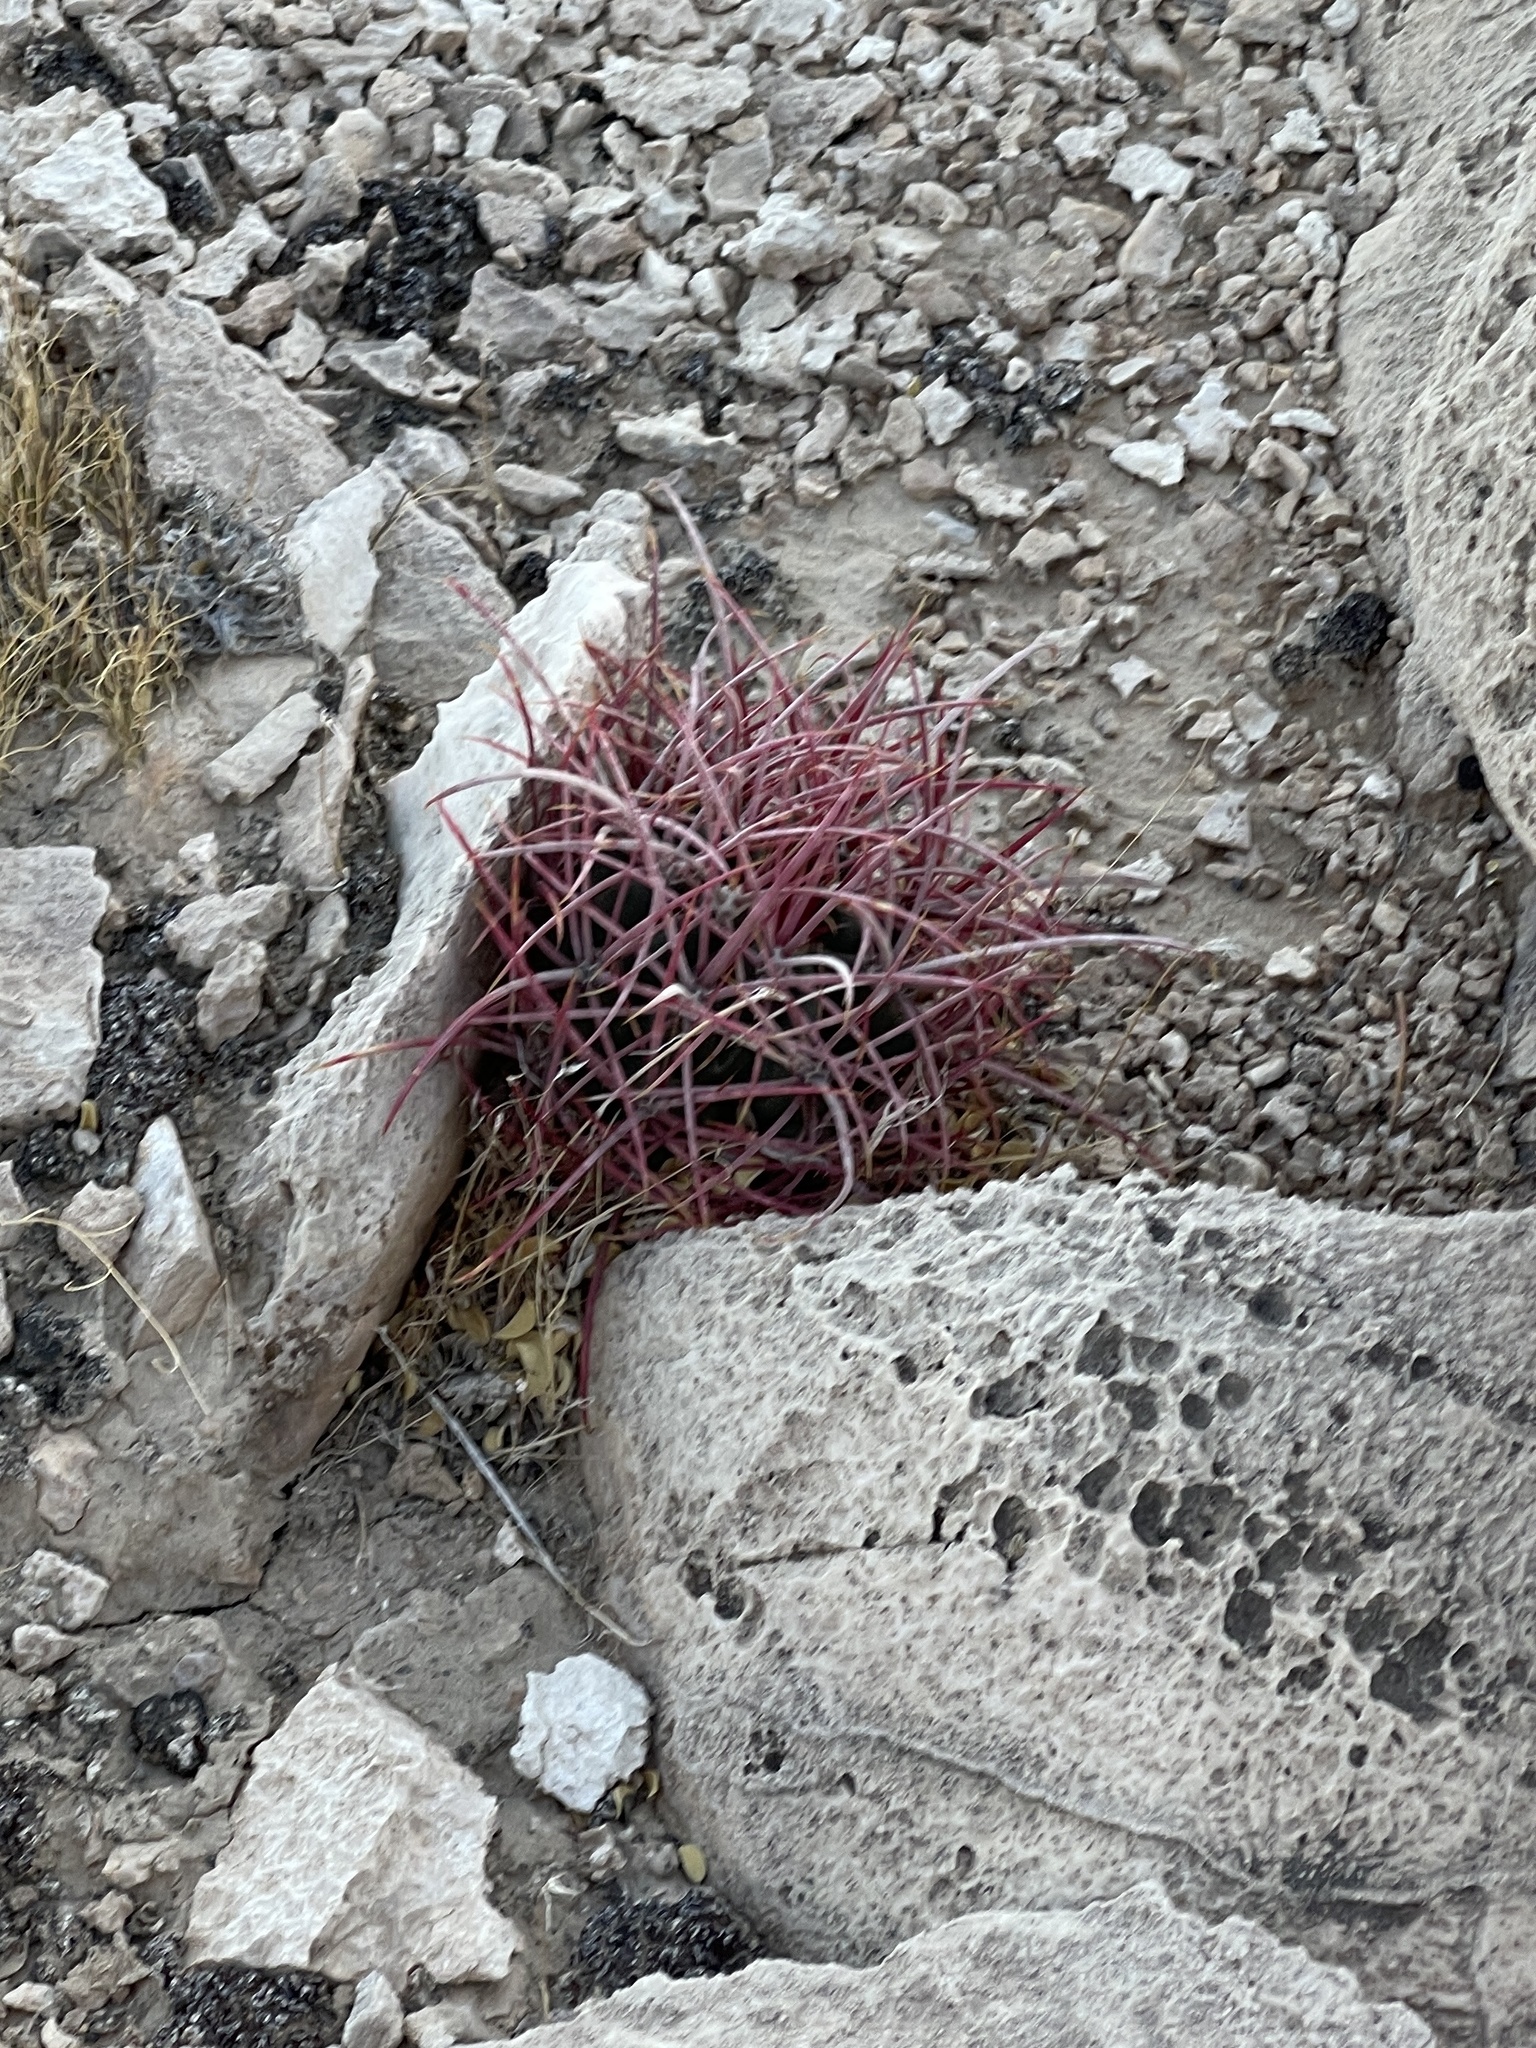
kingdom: Plantae
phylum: Tracheophyta
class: Magnoliopsida
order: Caryophyllales
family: Cactaceae
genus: Echinocactus
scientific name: Echinocactus polycephalus
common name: Cottontop cactus
